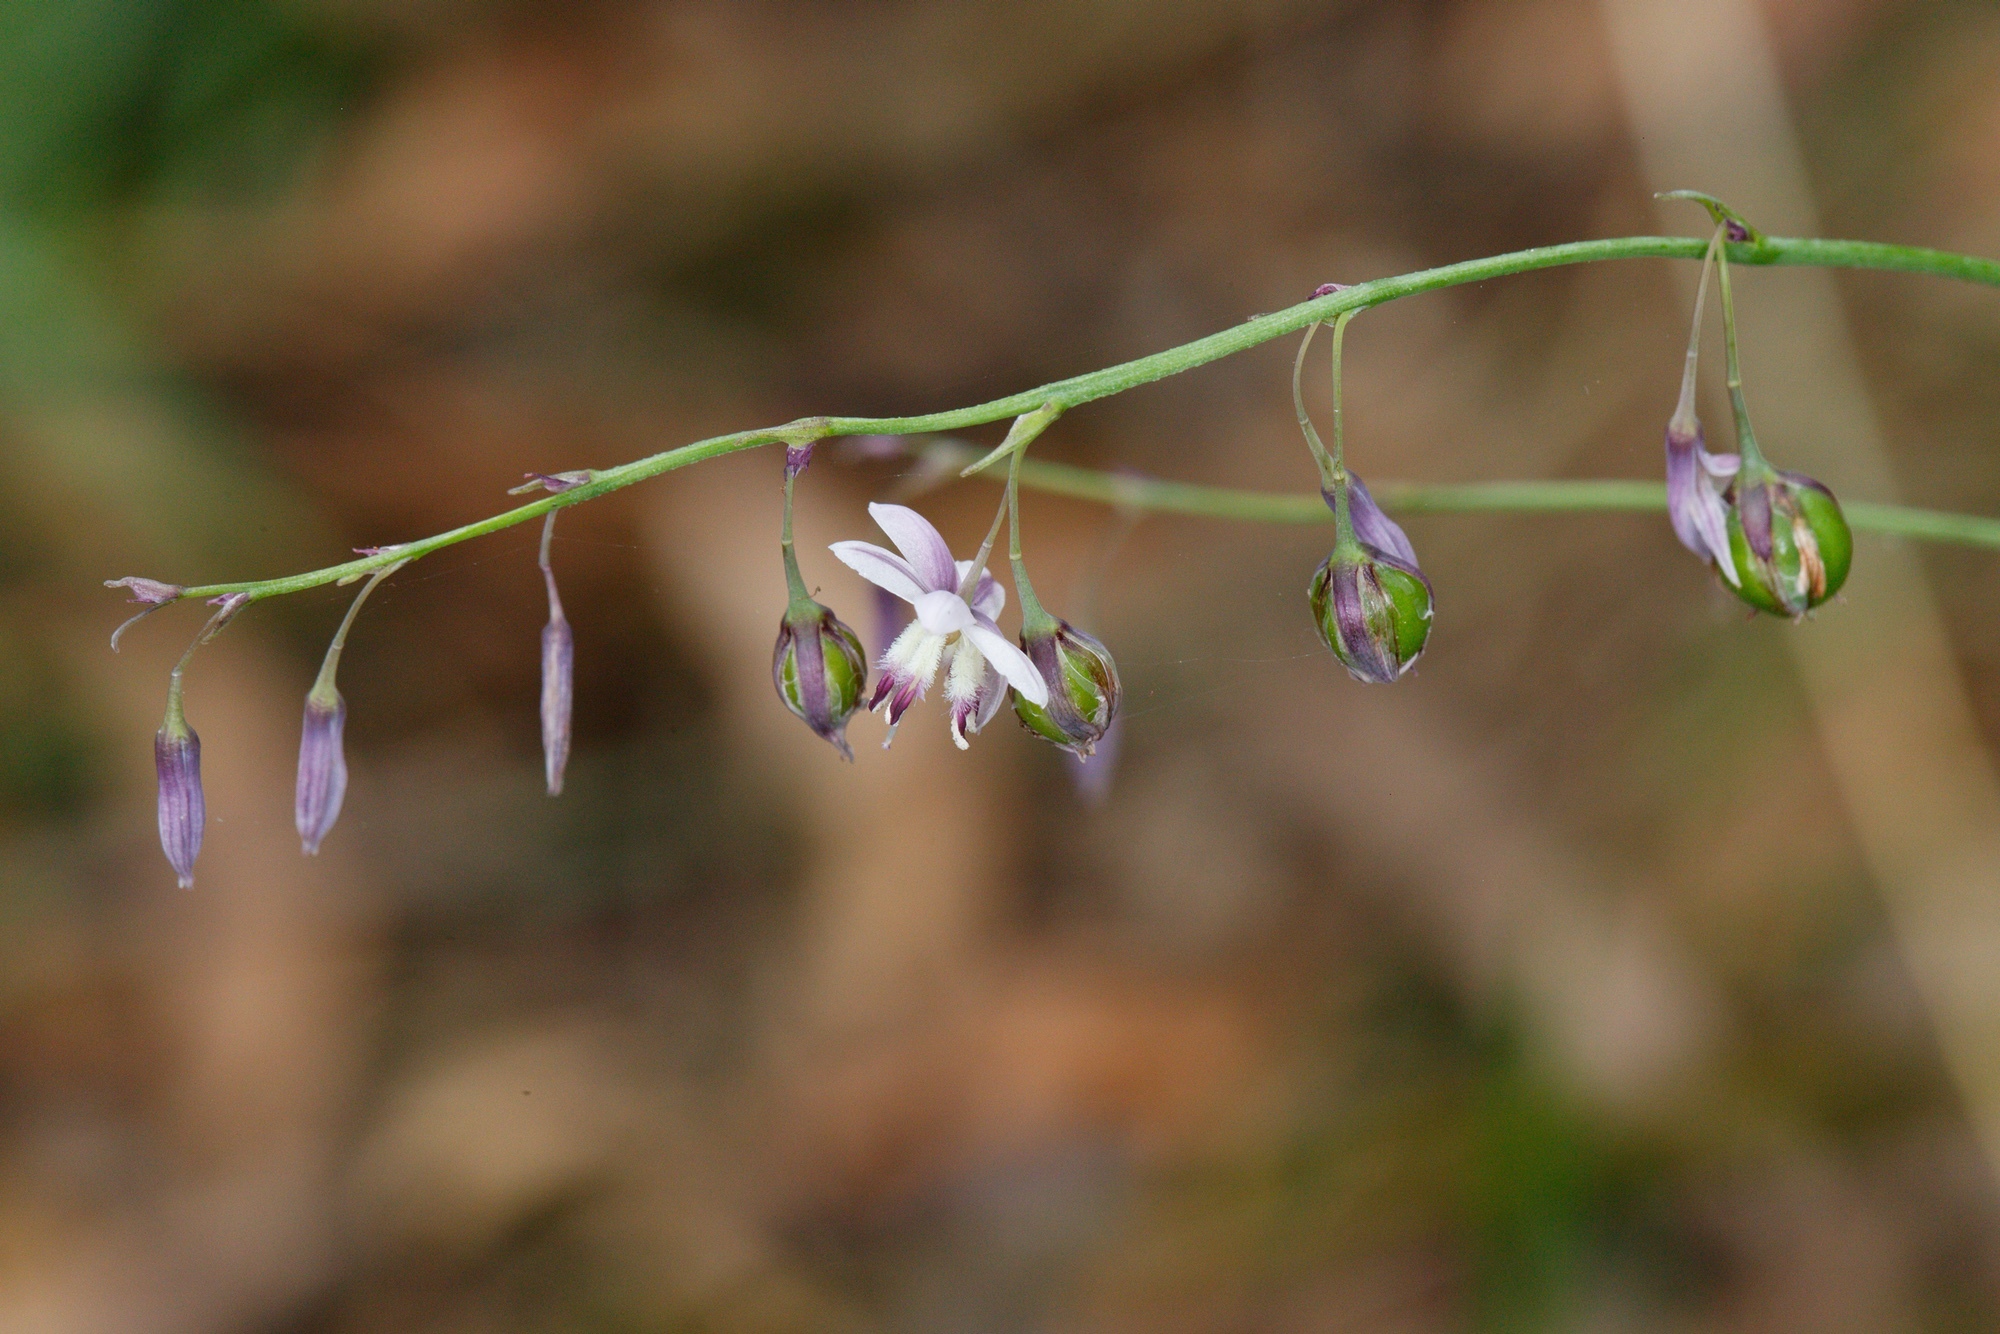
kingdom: Plantae
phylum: Tracheophyta
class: Liliopsida
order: Asparagales
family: Asparagaceae
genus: Arthropodium
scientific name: Arthropodium milleflorum
